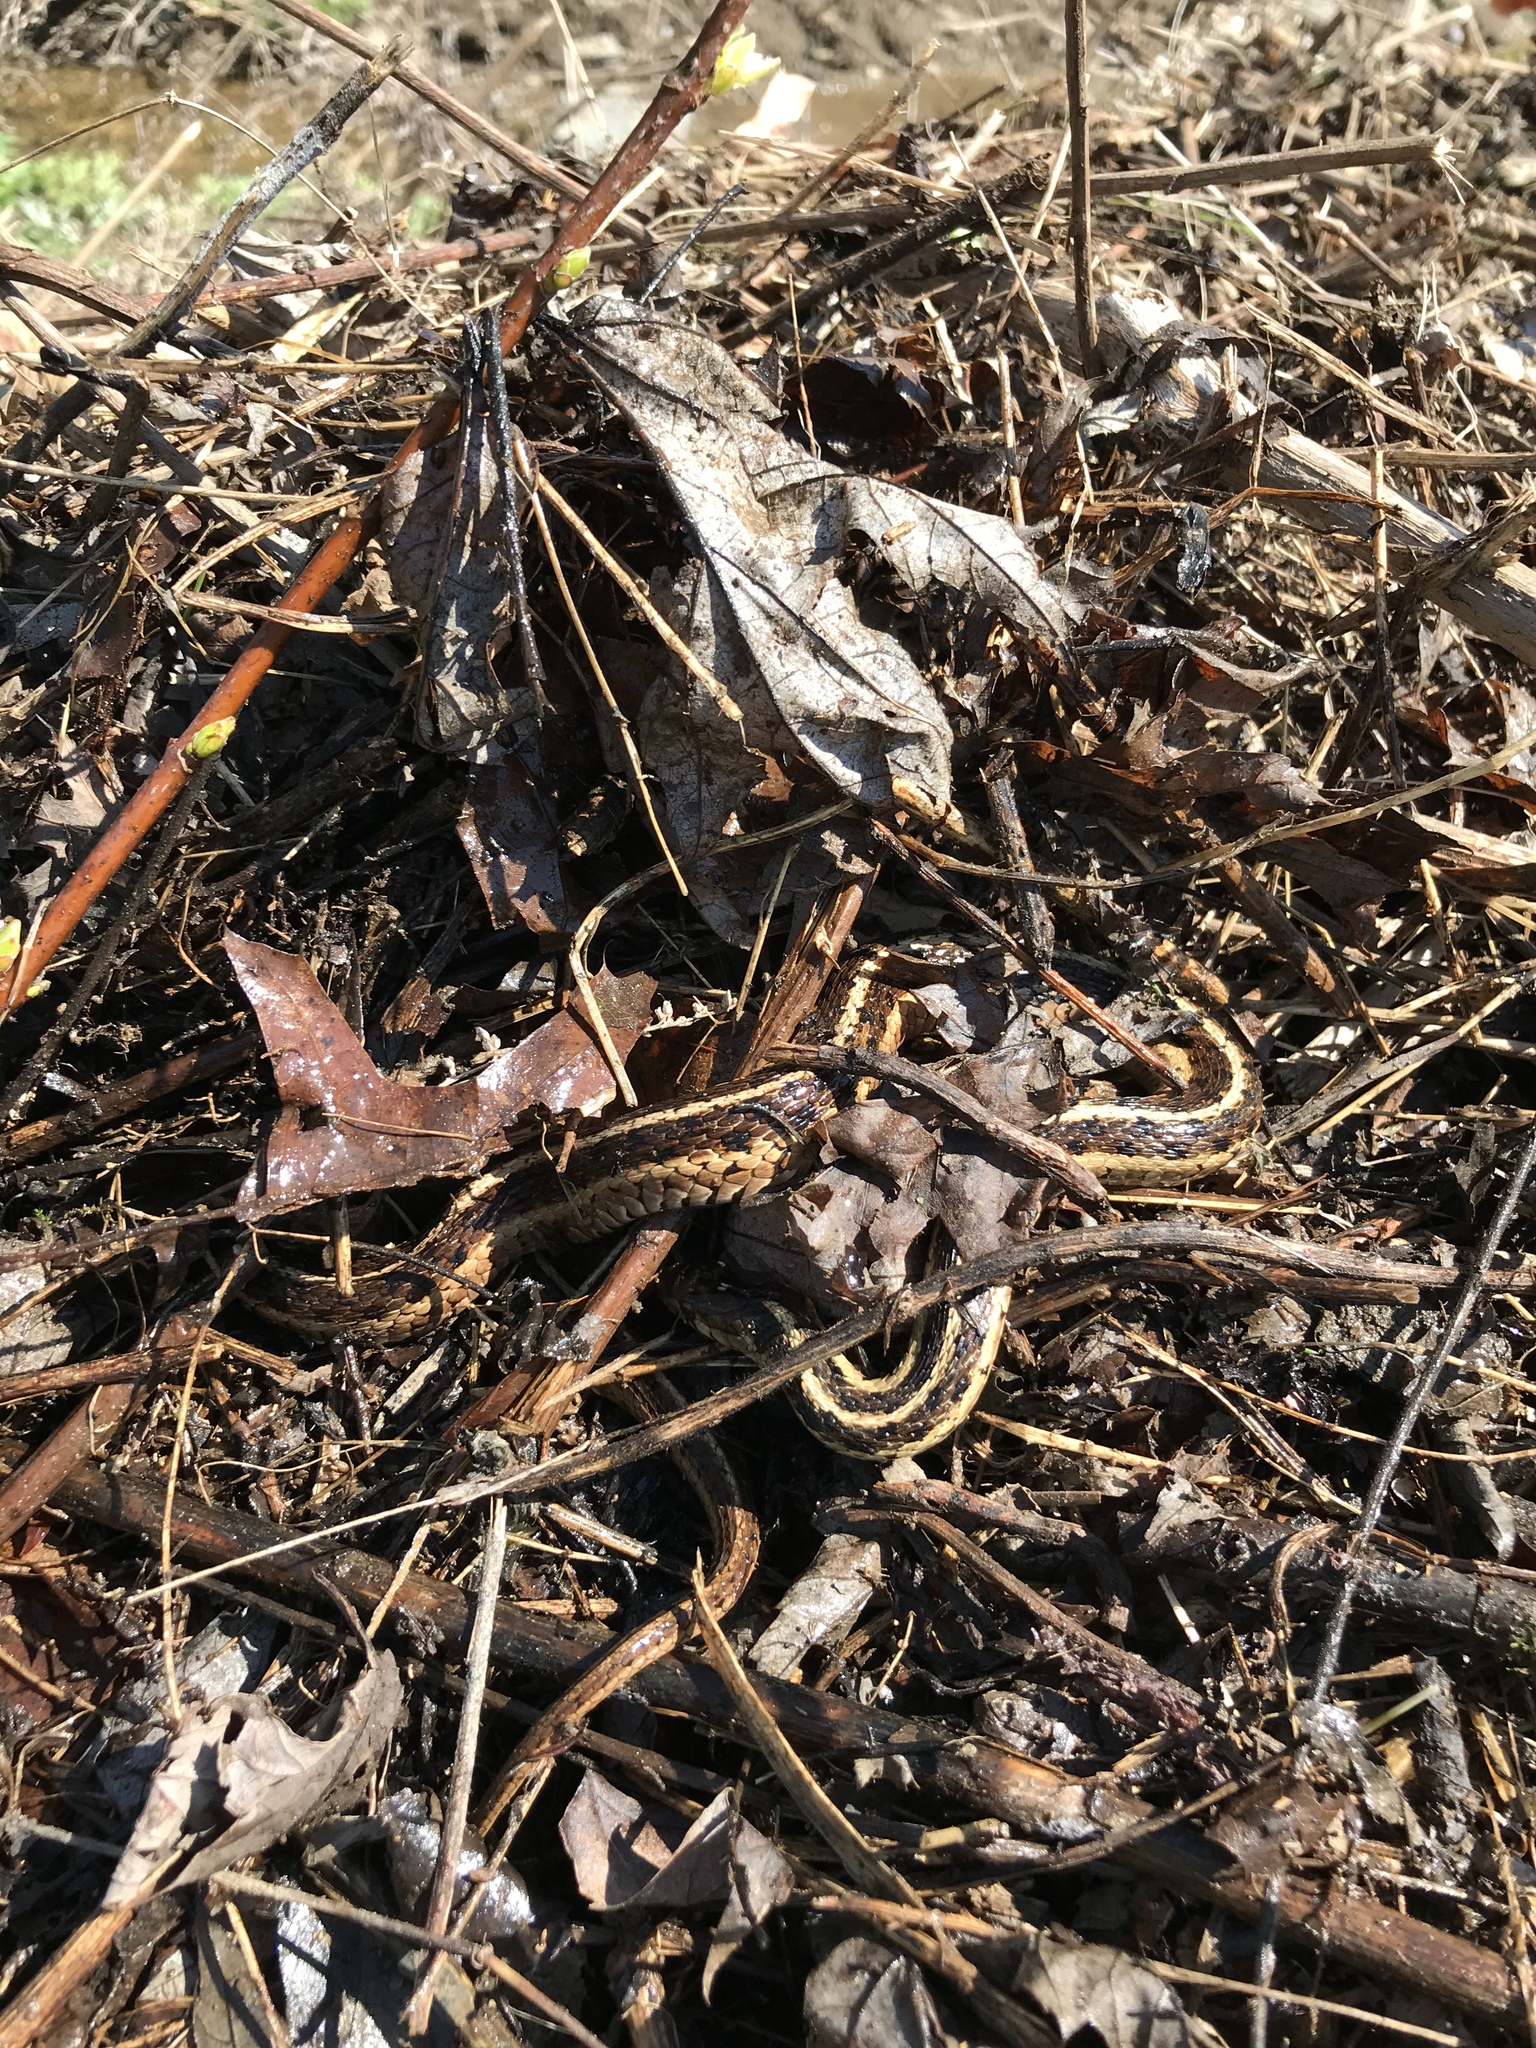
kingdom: Animalia
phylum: Chordata
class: Squamata
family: Colubridae
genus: Thamnophis
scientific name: Thamnophis sirtalis
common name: Common garter snake
